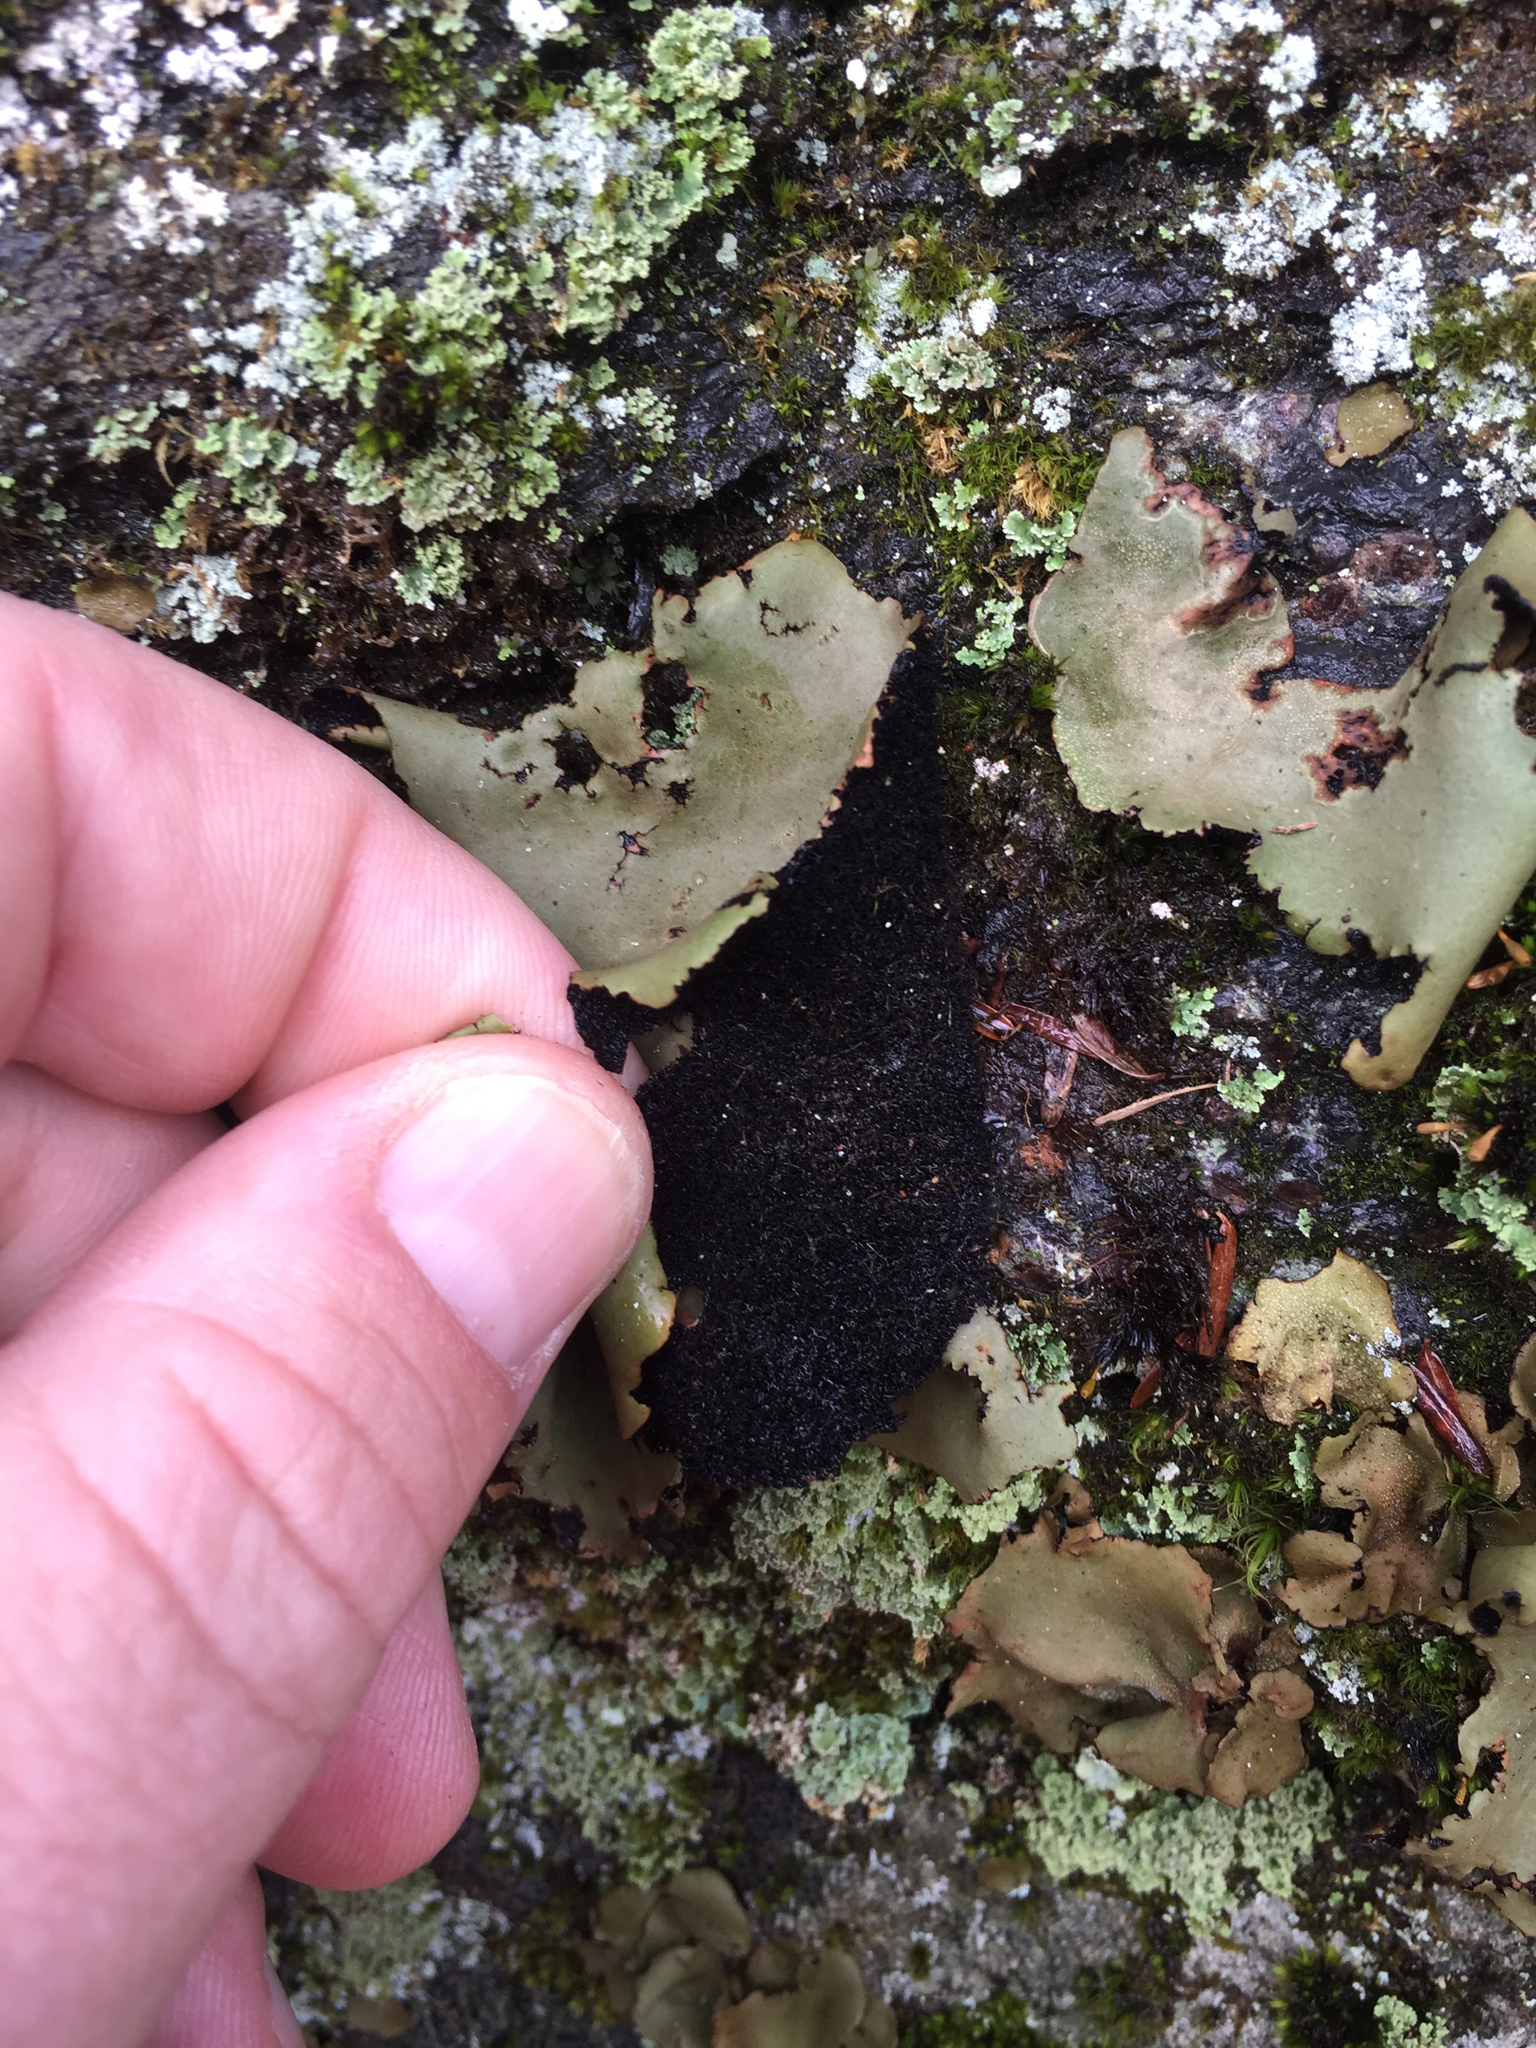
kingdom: Fungi
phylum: Ascomycota
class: Lecanoromycetes
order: Umbilicariales
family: Umbilicariaceae
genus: Umbilicaria
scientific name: Umbilicaria mammulata
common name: Smooth rock tripe
